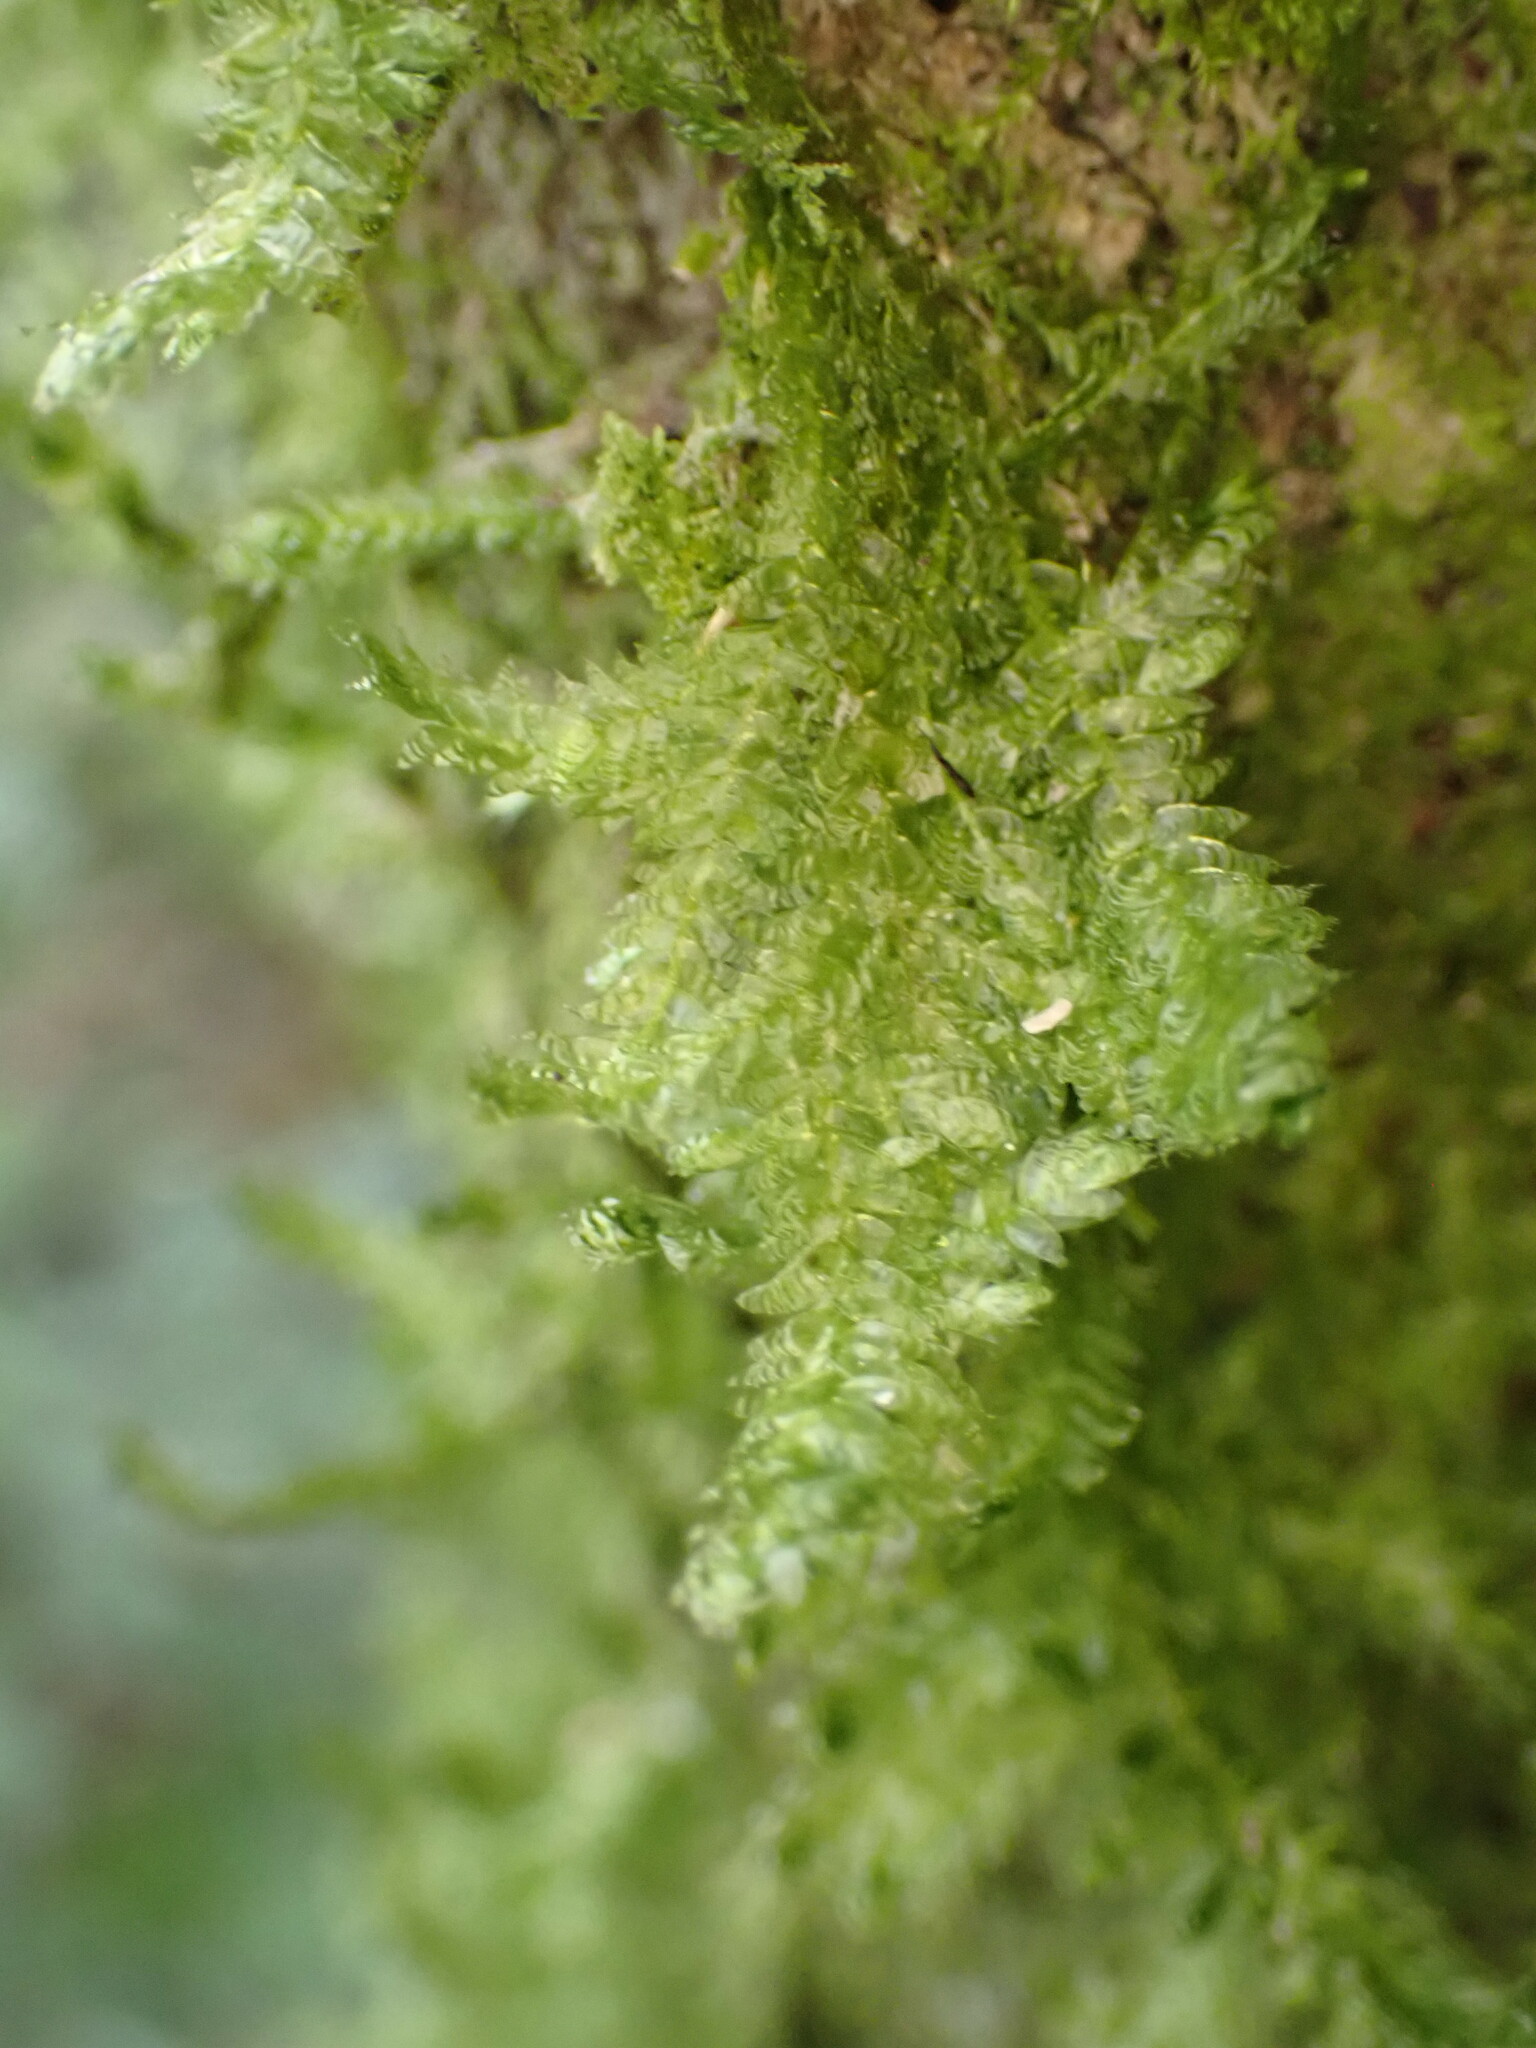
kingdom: Plantae
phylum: Bryophyta
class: Bryopsida
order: Hypnales
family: Neckeraceae
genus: Alleniella
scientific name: Alleniella hymenodonta
